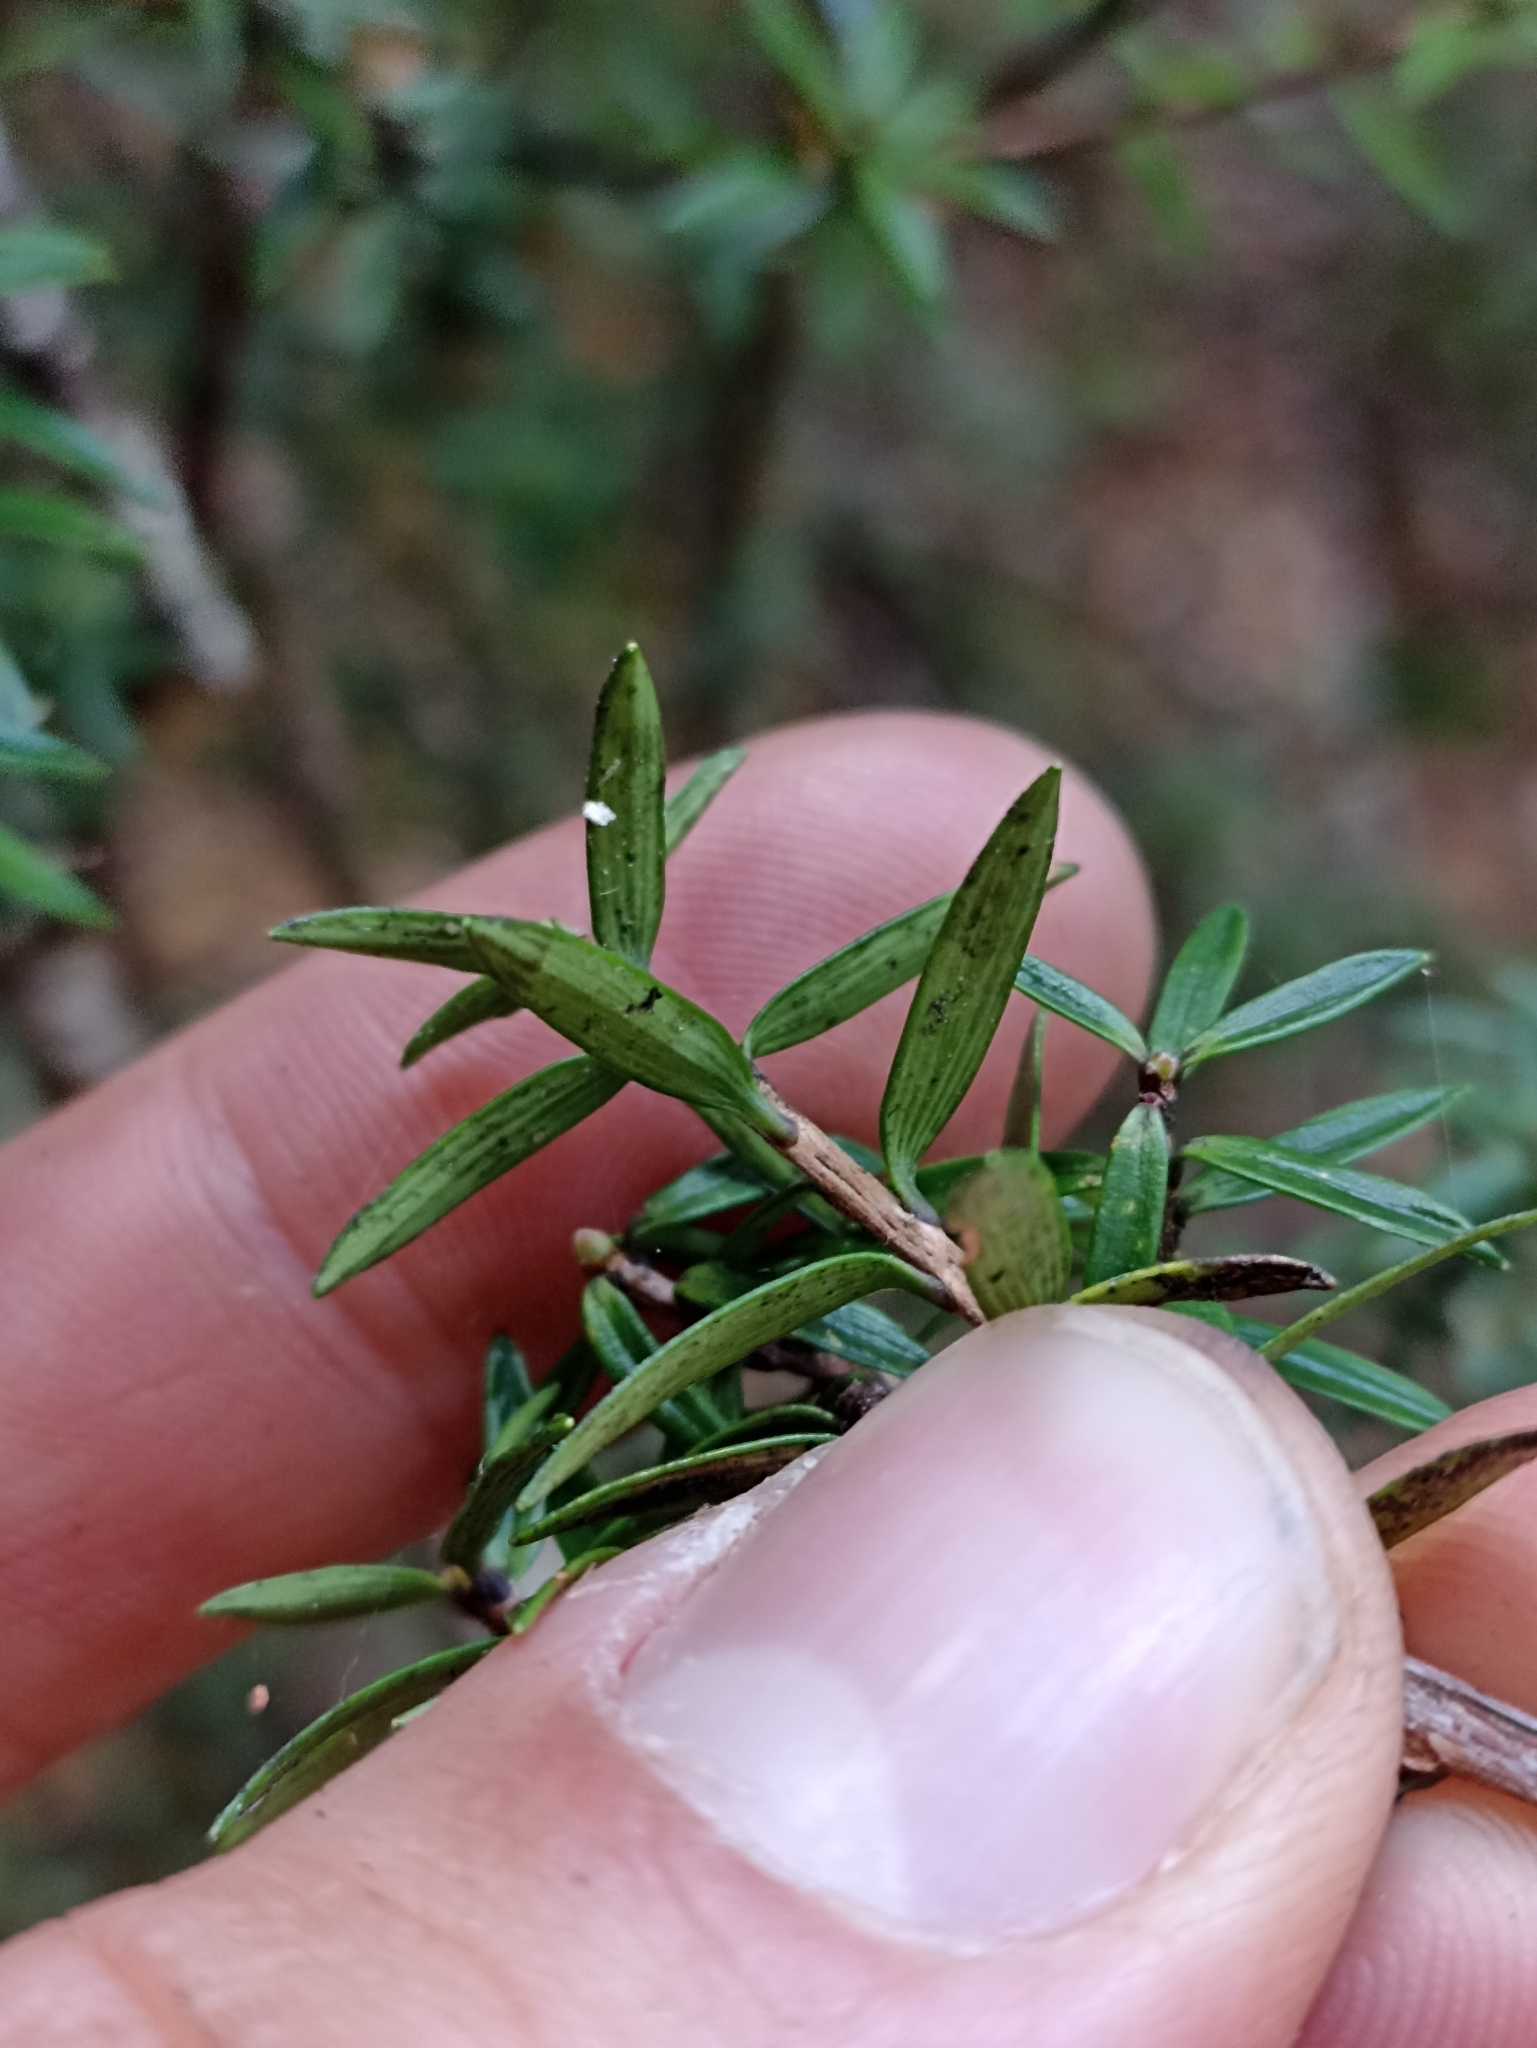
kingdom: Plantae
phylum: Tracheophyta
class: Magnoliopsida
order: Ericales
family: Ericaceae
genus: Archeria
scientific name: Archeria traversii
